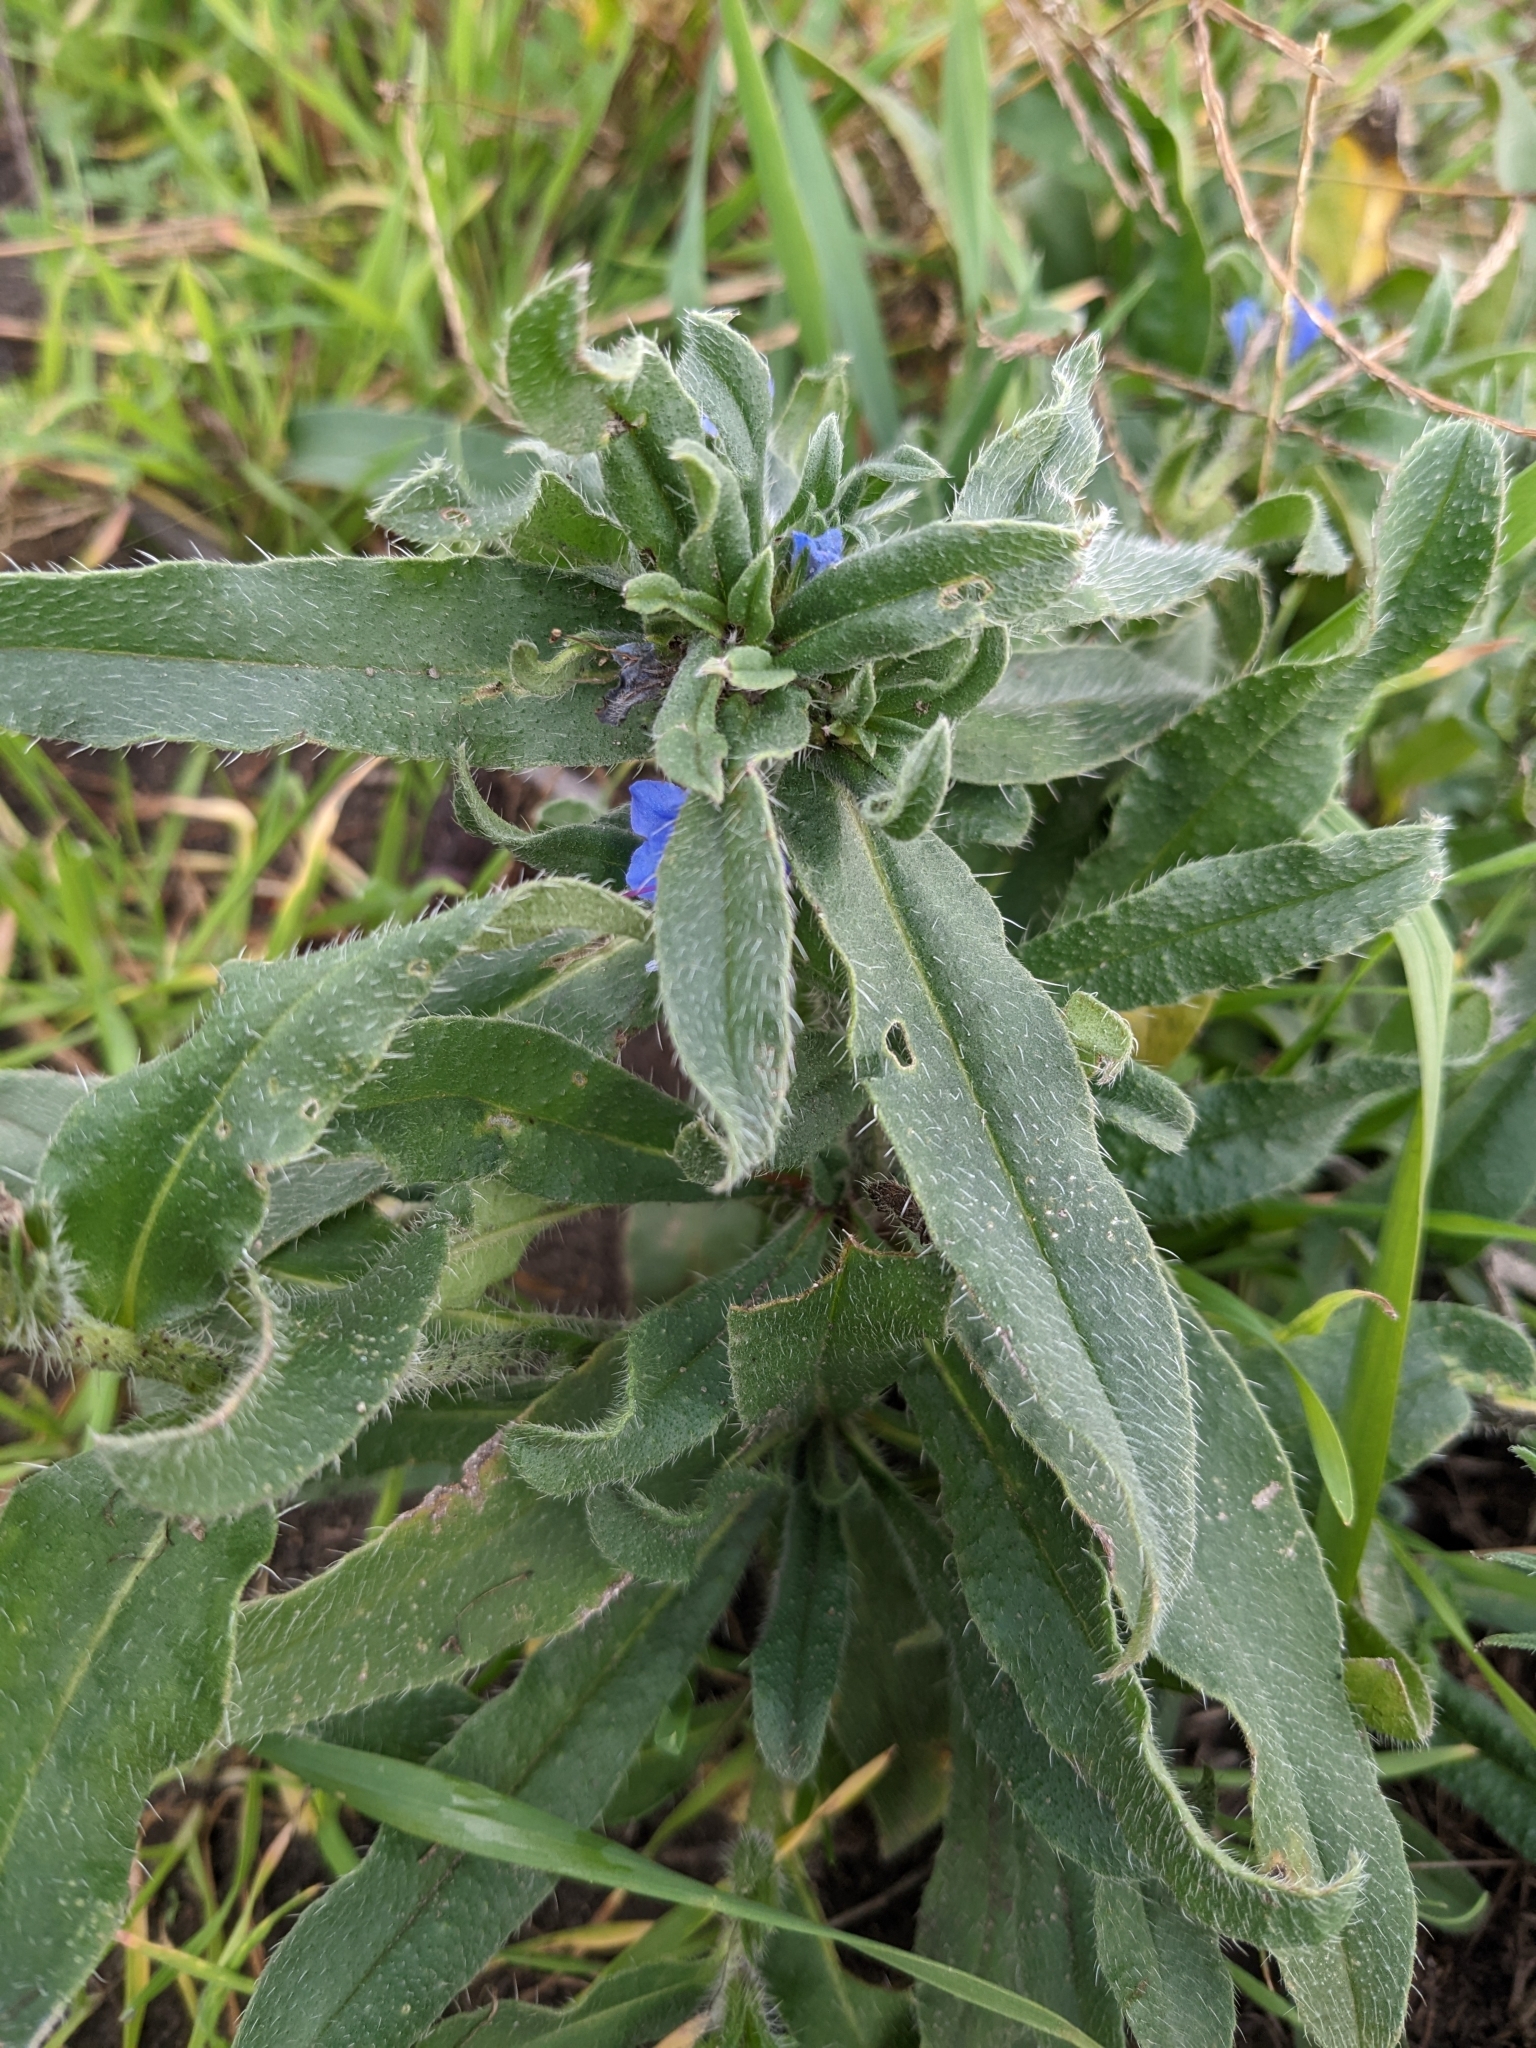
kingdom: Plantae
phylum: Tracheophyta
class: Magnoliopsida
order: Boraginales
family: Boraginaceae
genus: Echium
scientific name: Echium vulgare
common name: Common viper's bugloss
